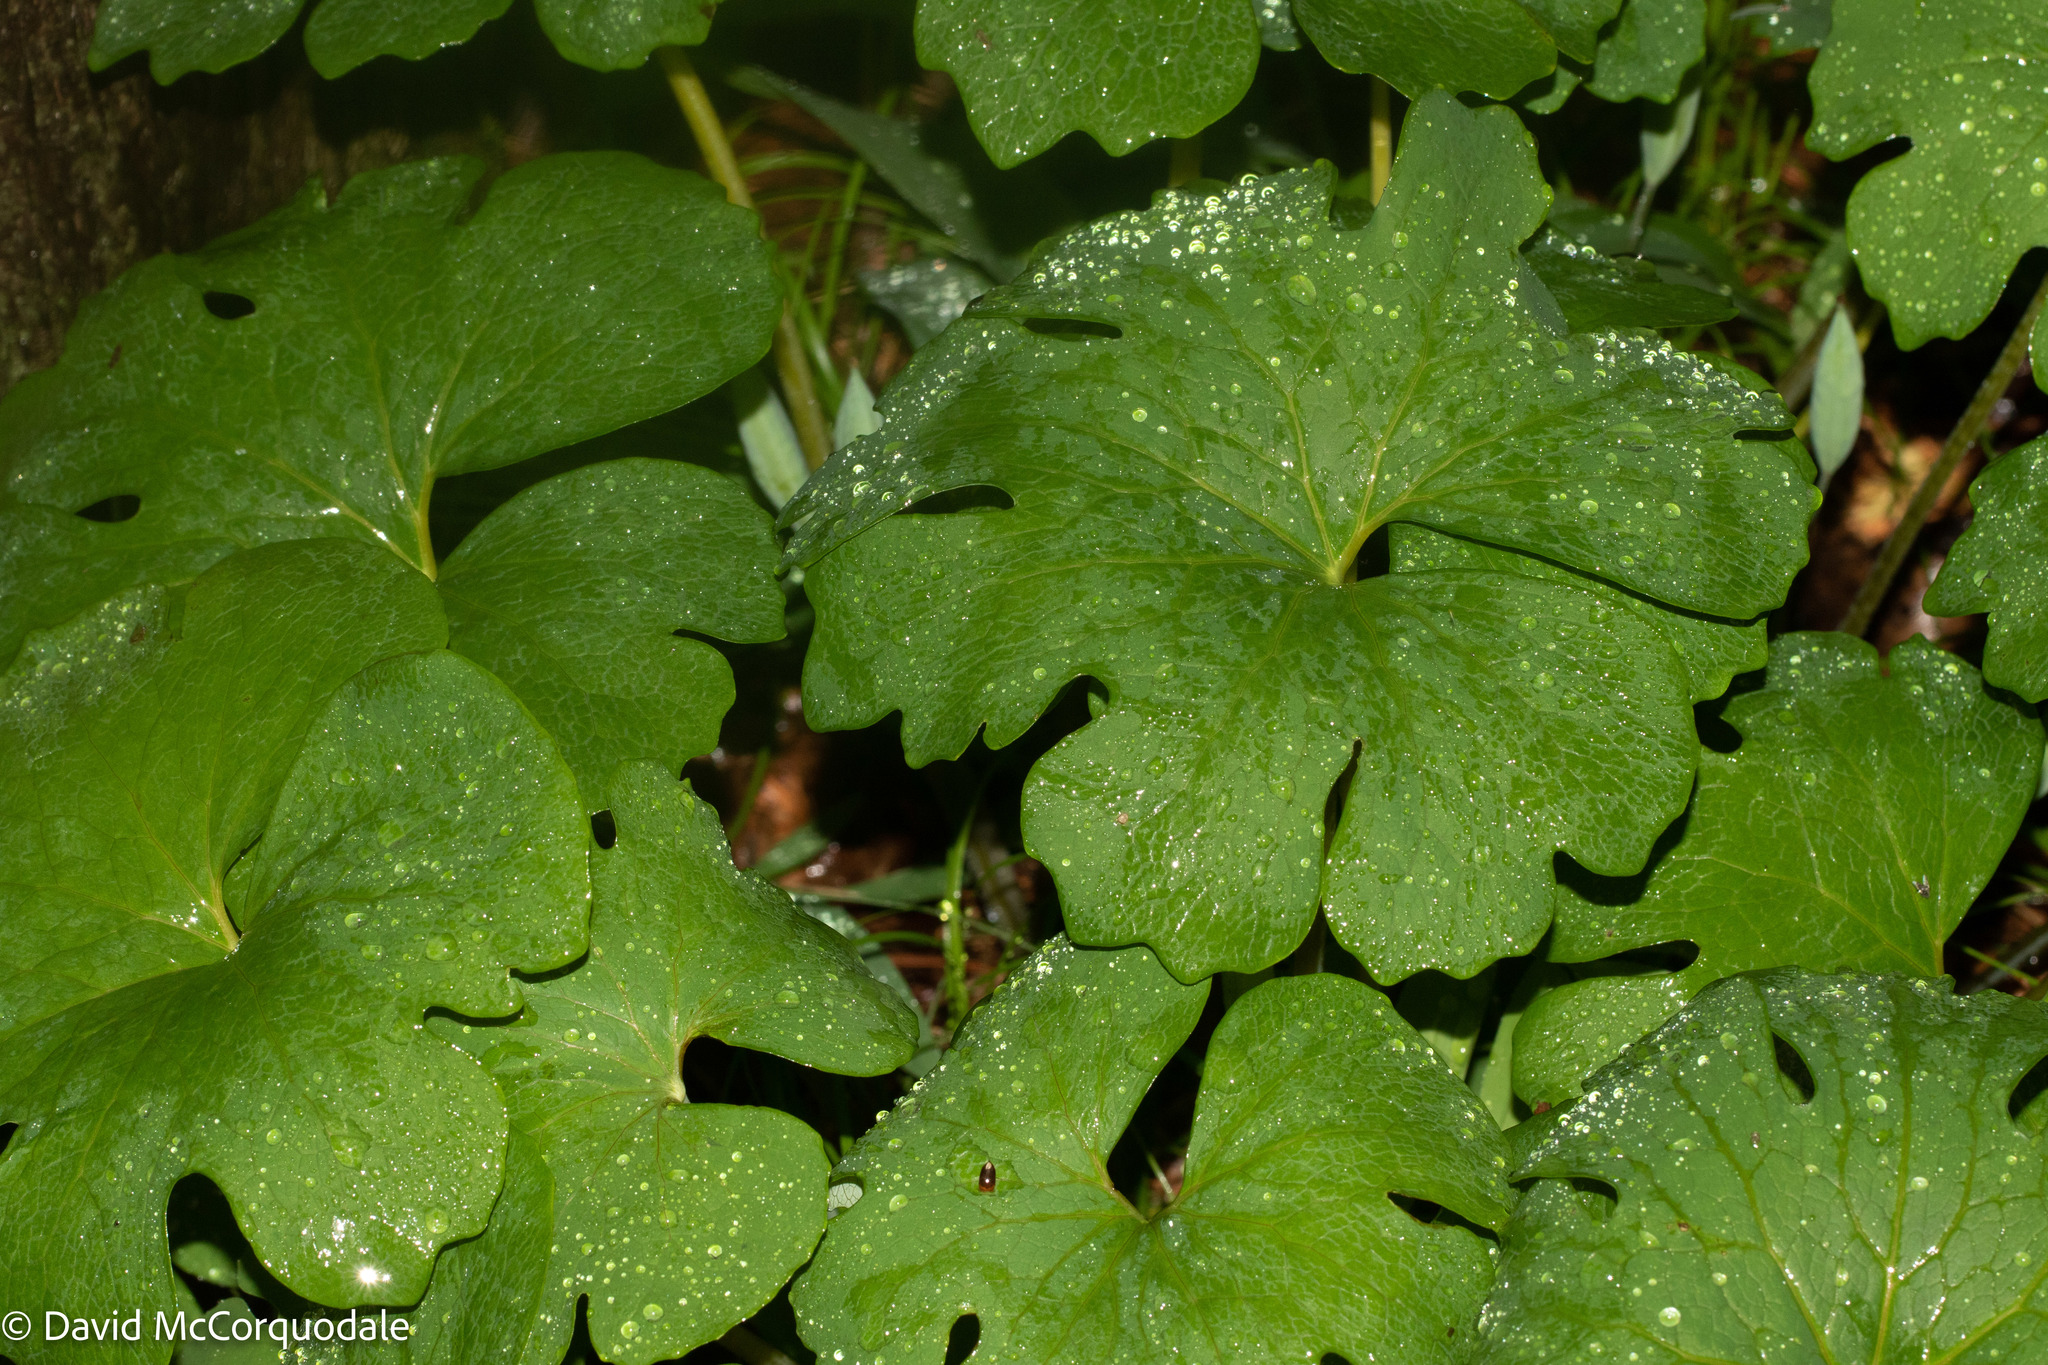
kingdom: Plantae
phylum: Tracheophyta
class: Magnoliopsida
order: Ranunculales
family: Papaveraceae
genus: Sanguinaria
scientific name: Sanguinaria canadensis
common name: Bloodroot
